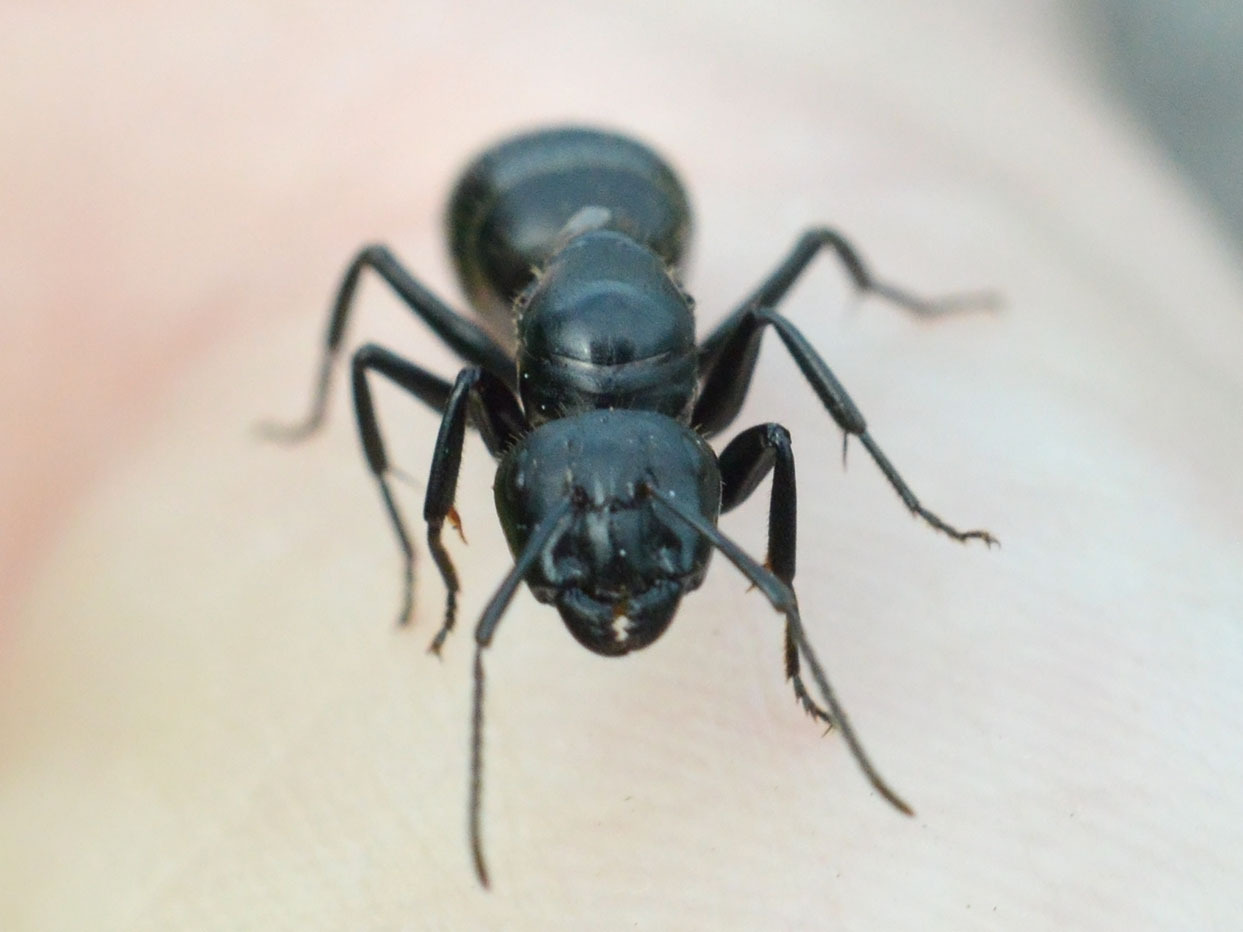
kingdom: Animalia
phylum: Arthropoda
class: Insecta
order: Hymenoptera
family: Formicidae
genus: Camponotus
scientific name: Camponotus vagus
